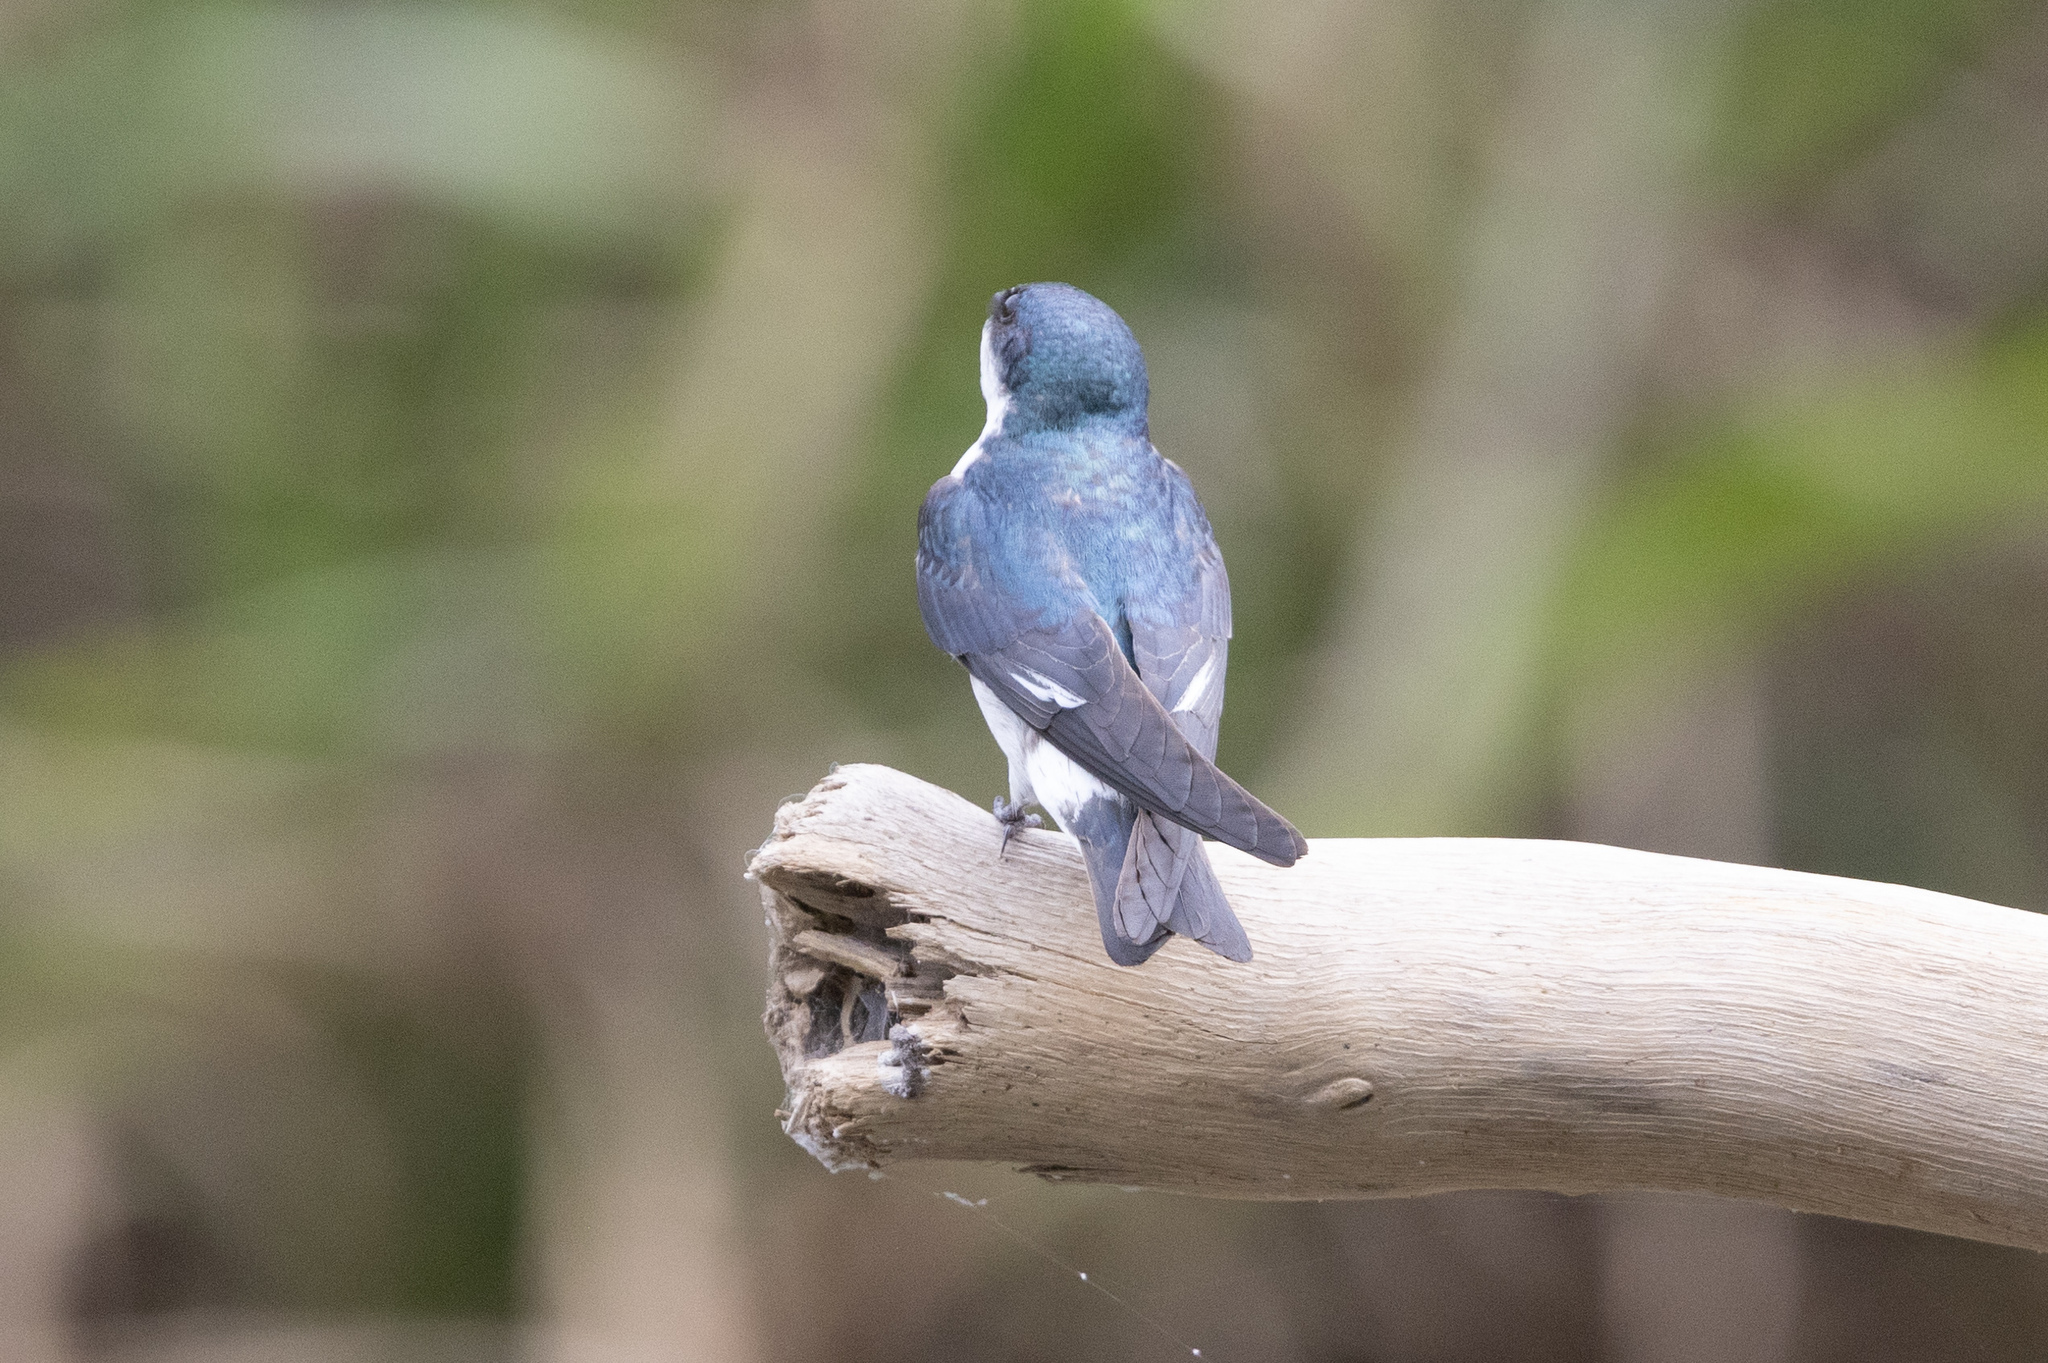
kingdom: Animalia
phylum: Chordata
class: Aves
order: Passeriformes
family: Hirundinidae
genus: Tachycineta
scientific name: Tachycineta albilinea
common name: Mangrove swallow
